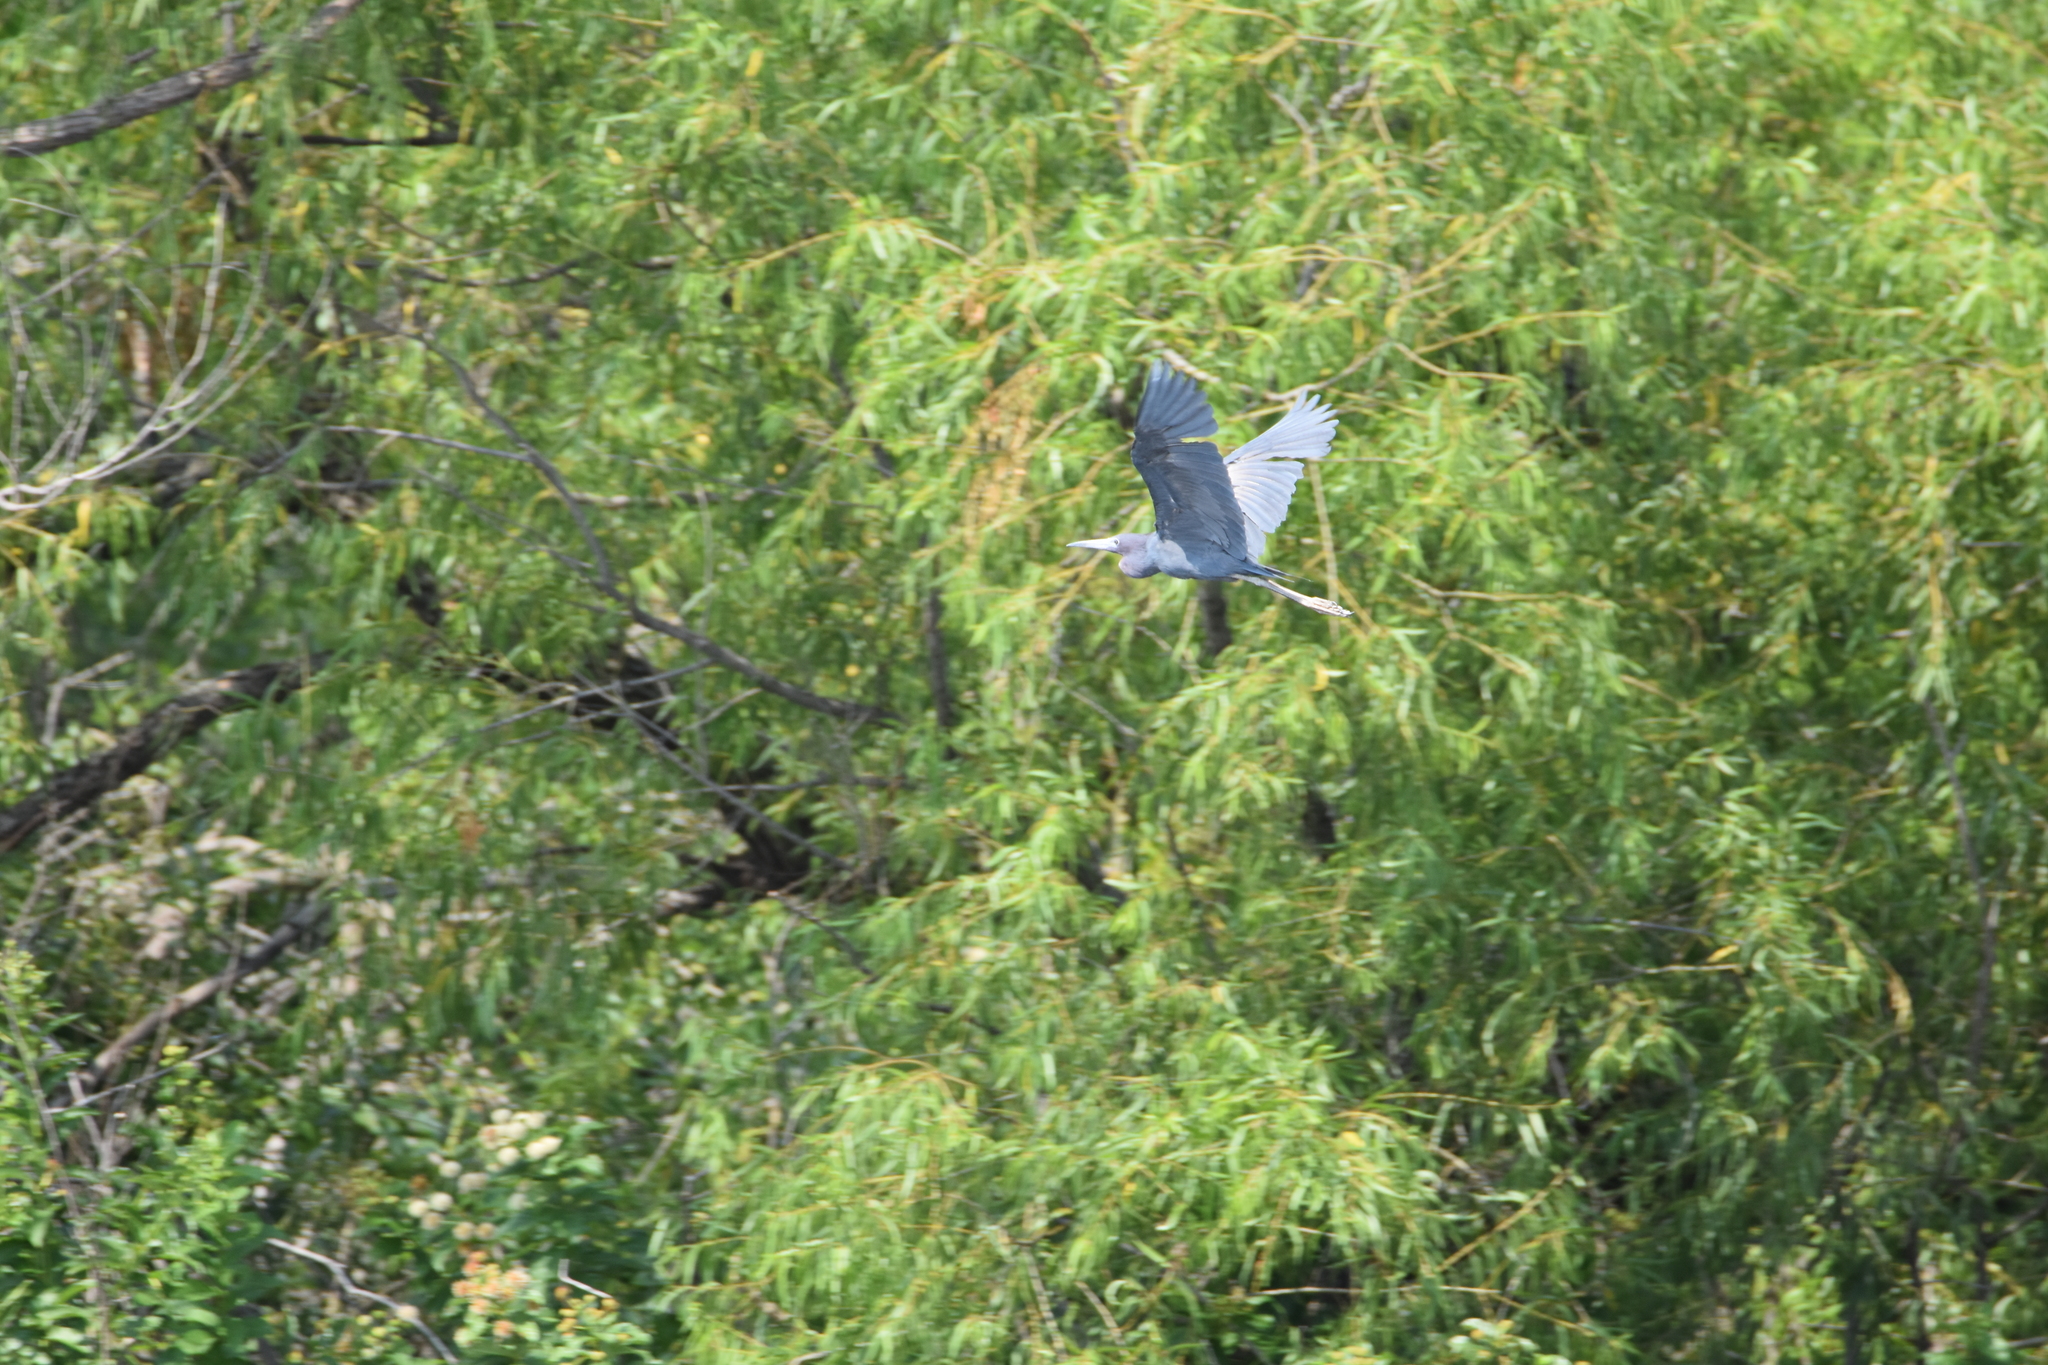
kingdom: Animalia
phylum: Chordata
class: Aves
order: Pelecaniformes
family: Ardeidae
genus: Egretta
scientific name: Egretta caerulea
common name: Little blue heron
